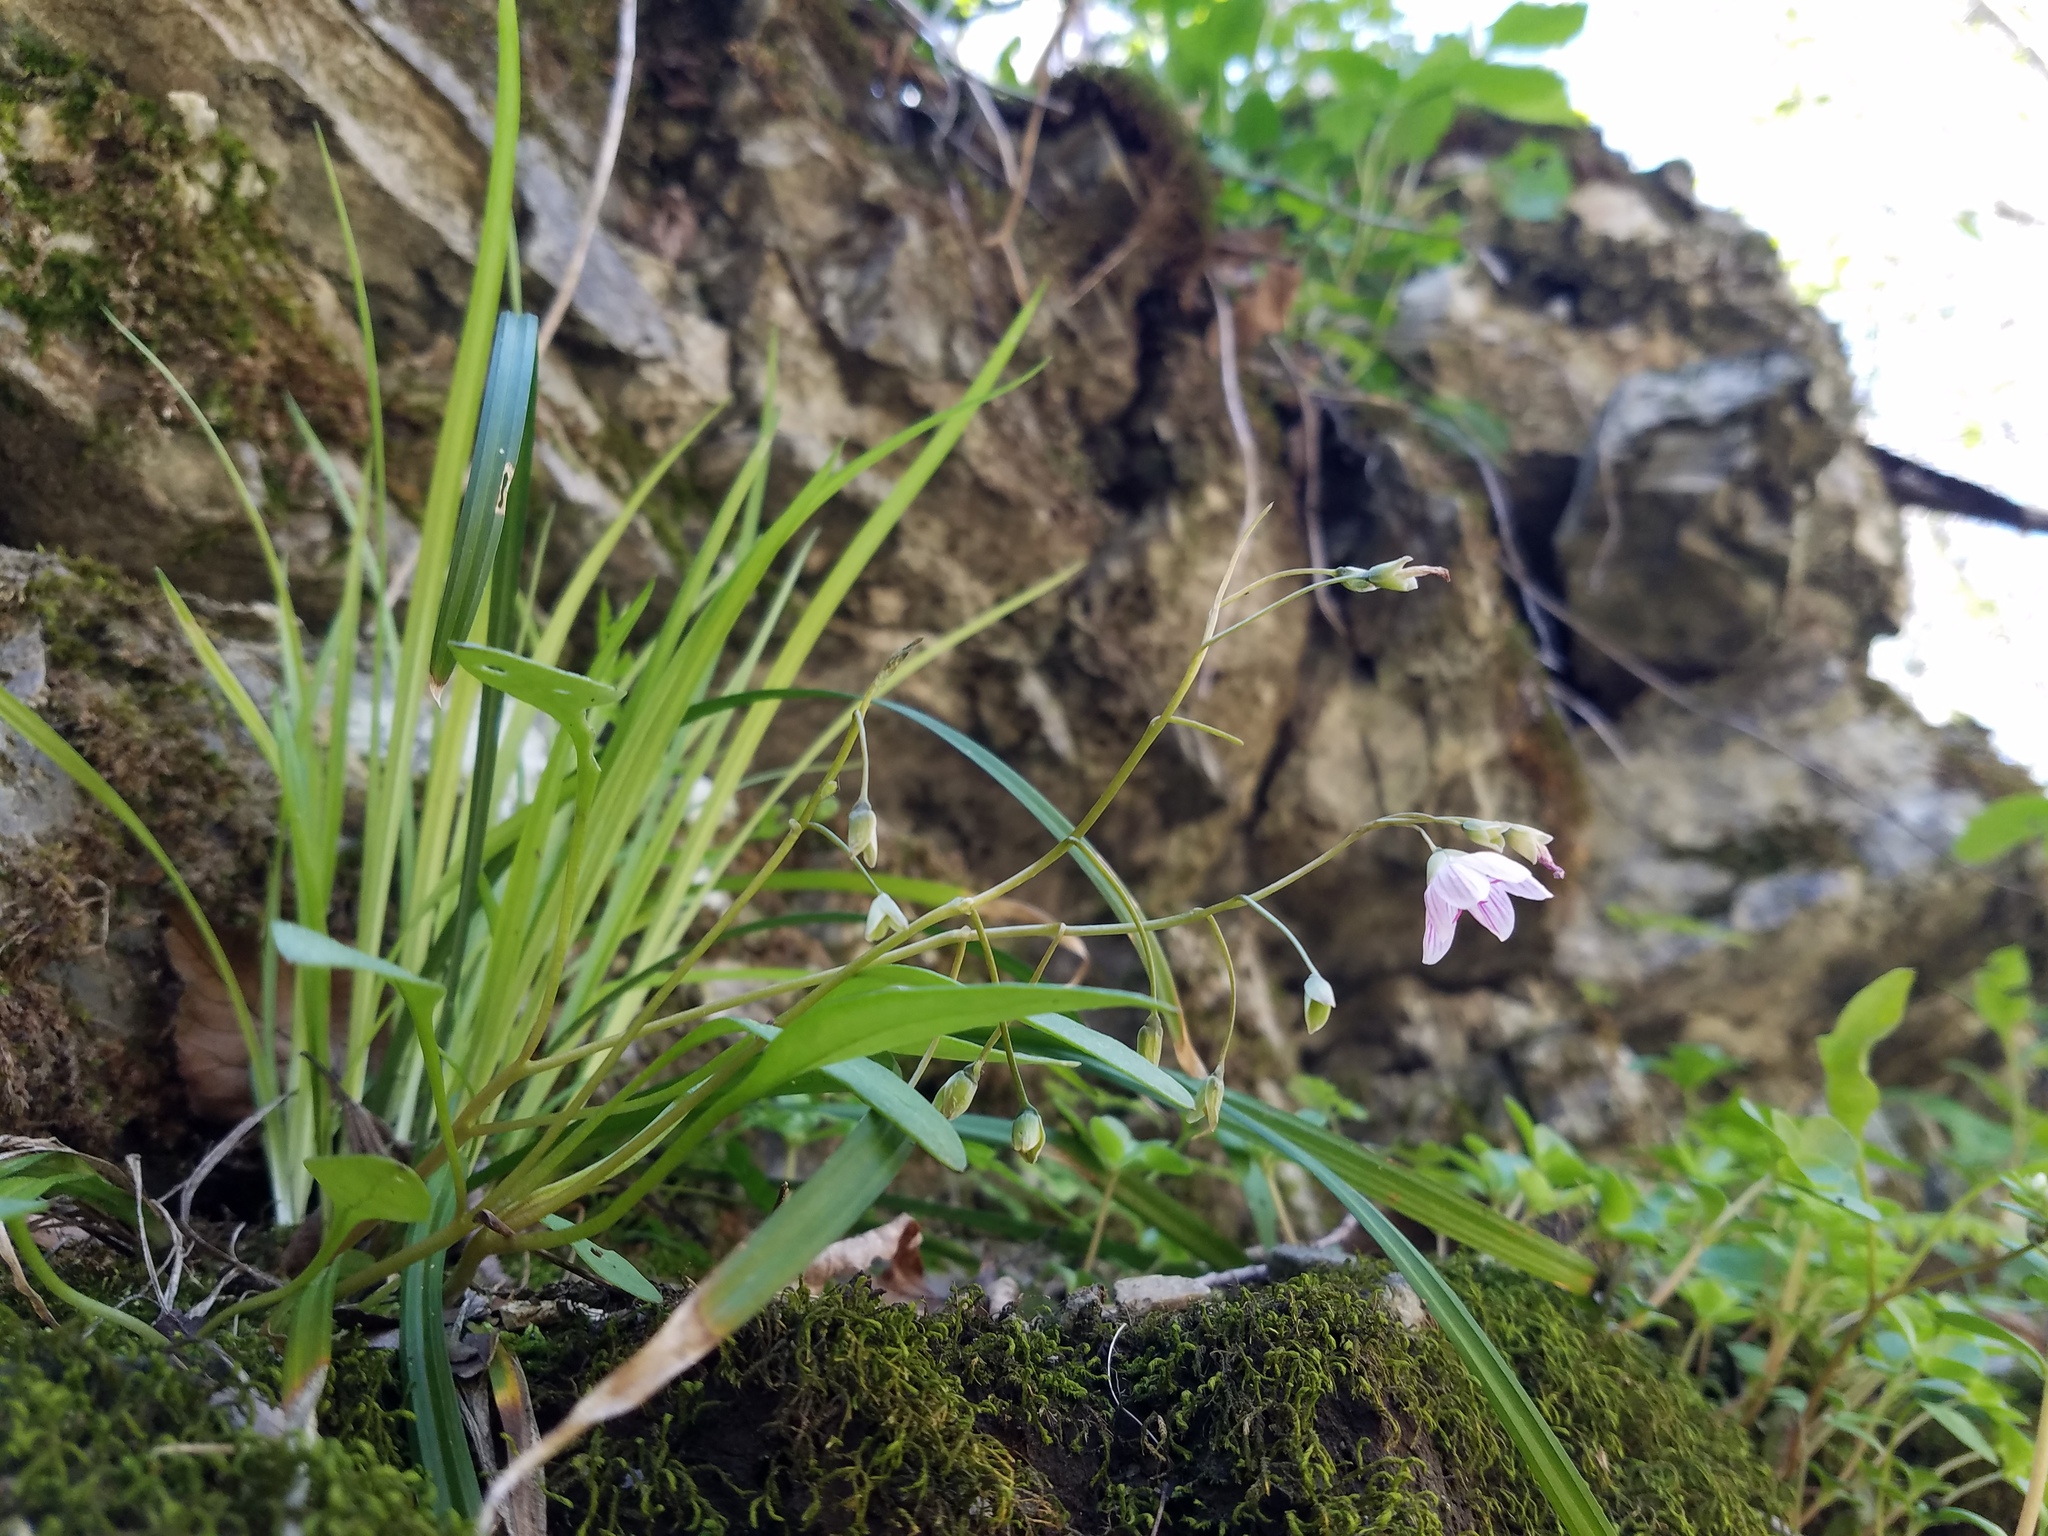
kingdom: Plantae
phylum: Tracheophyta
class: Magnoliopsida
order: Caryophyllales
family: Montiaceae
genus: Claytonia
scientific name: Claytonia caroliniana
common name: Carolina spring beauty
